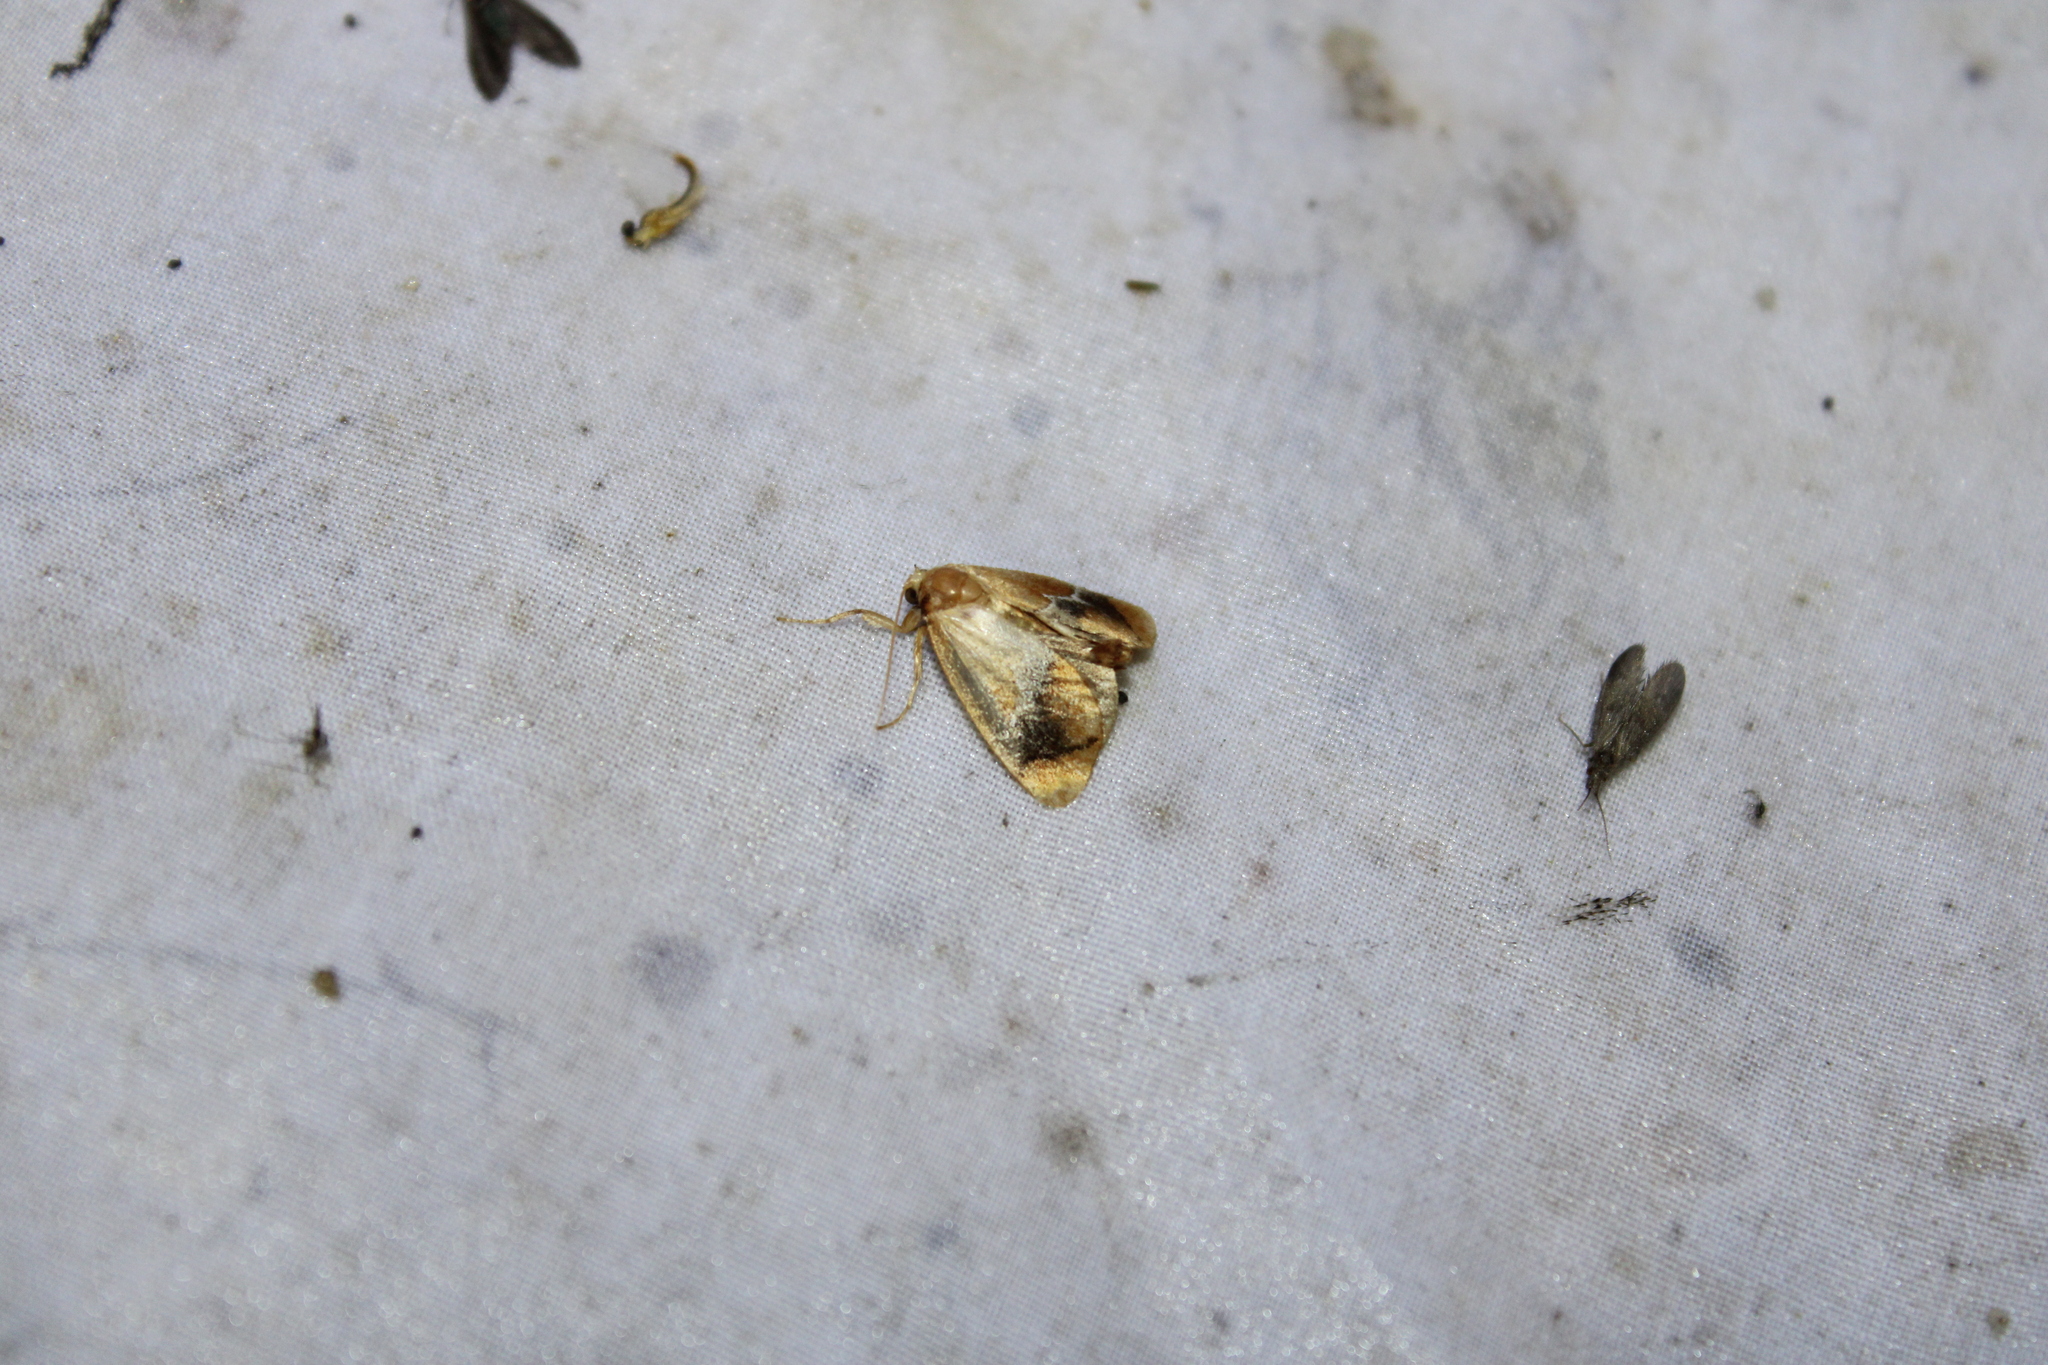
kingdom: Animalia
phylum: Arthropoda
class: Insecta
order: Lepidoptera
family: Limacodidae
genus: Lithacodes
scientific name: Lithacodes fasciola
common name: Yellow-shouldered slug moth
